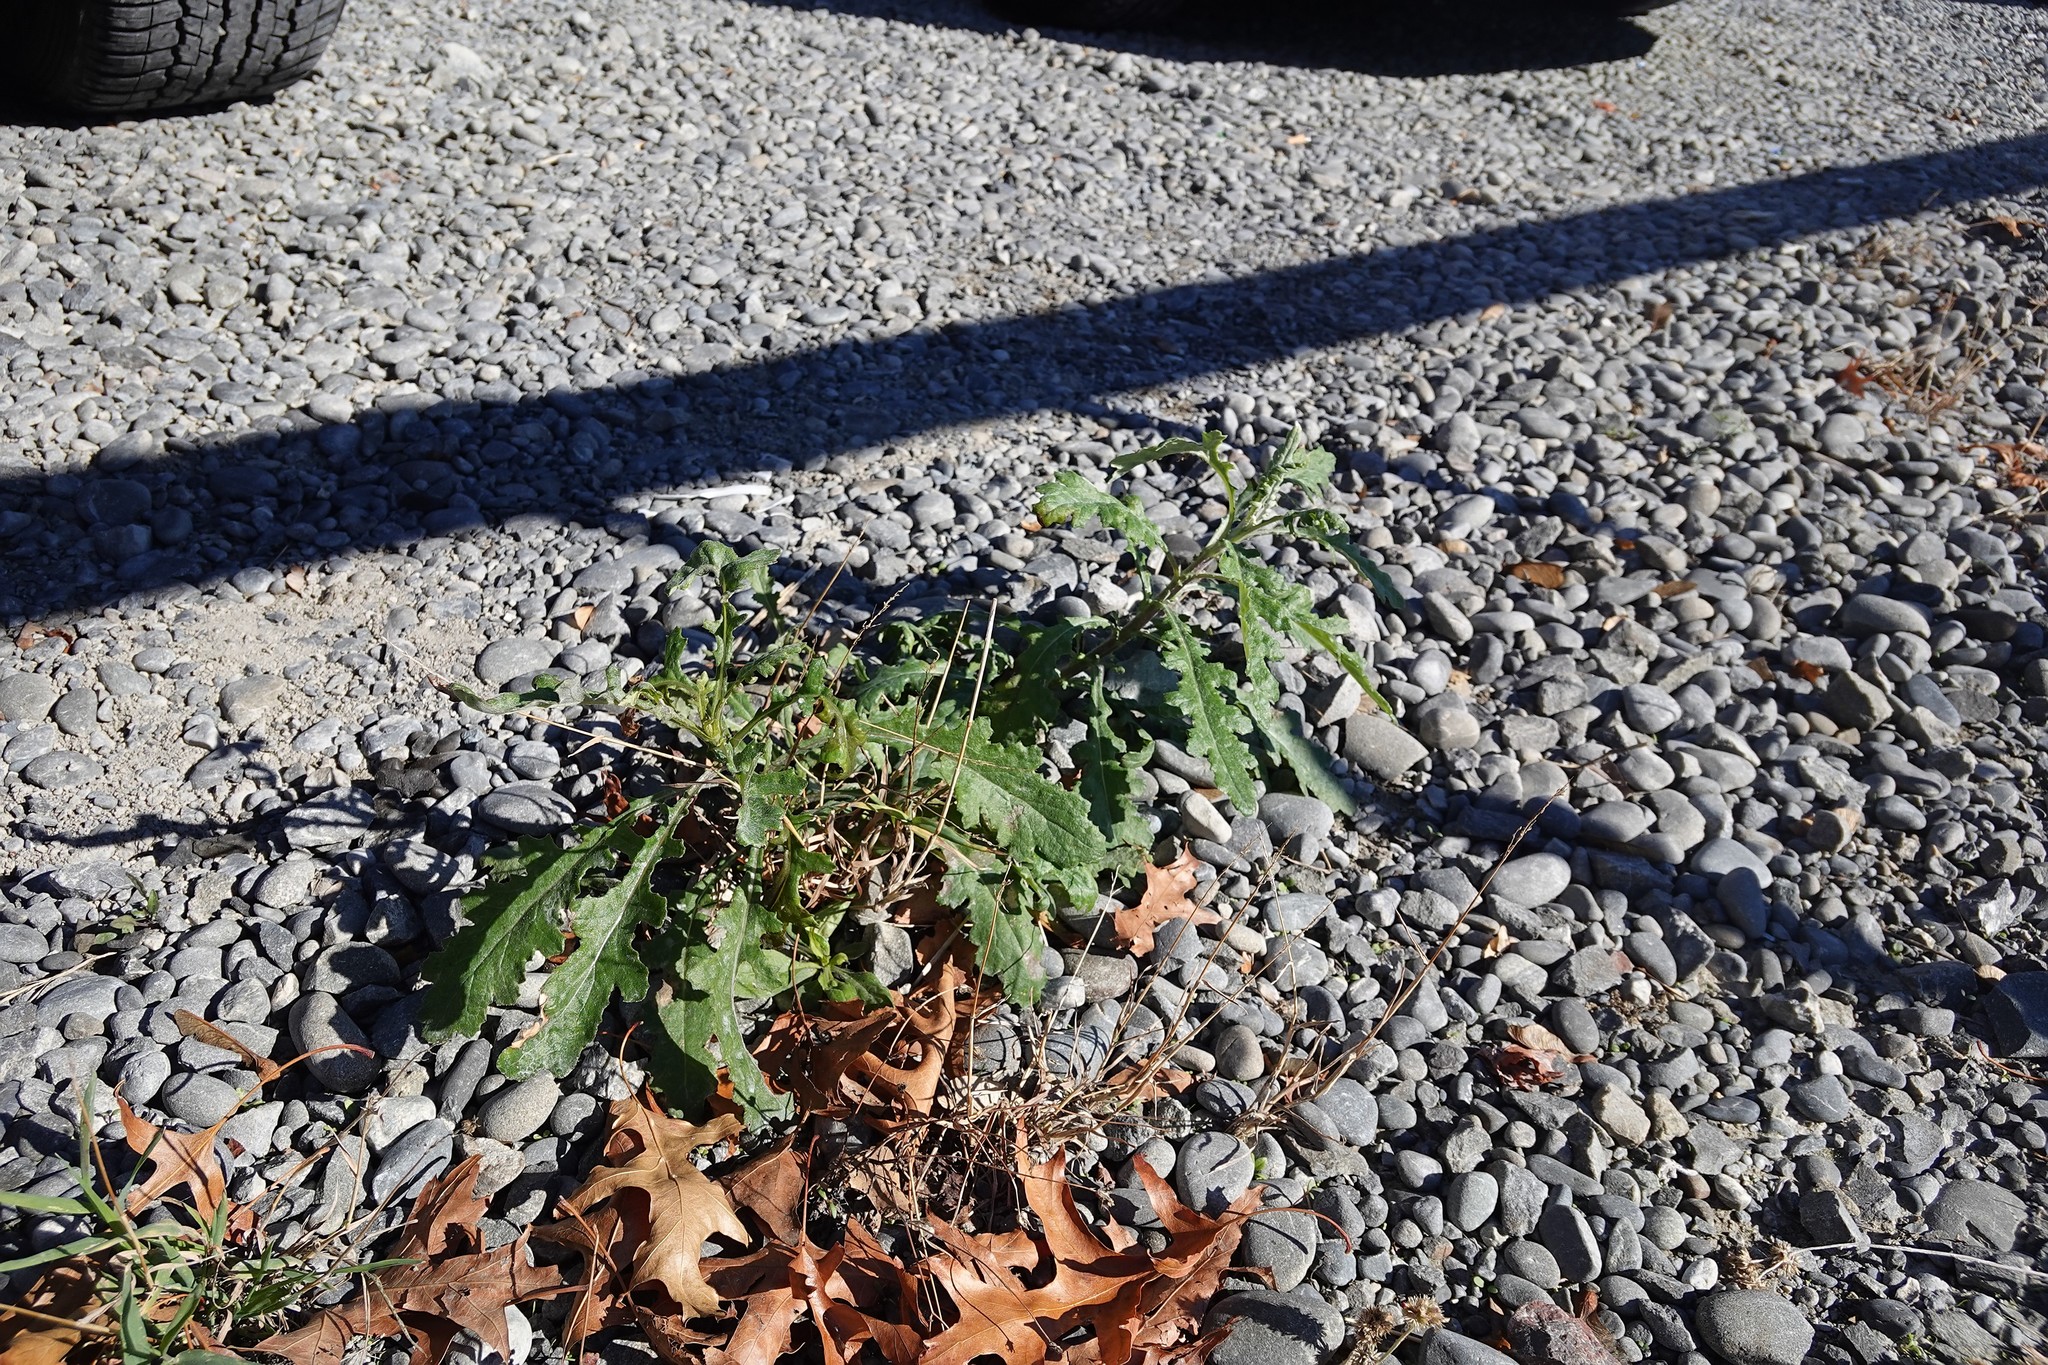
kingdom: Plantae
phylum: Tracheophyta
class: Magnoliopsida
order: Asterales
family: Asteraceae
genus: Senecio
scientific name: Senecio glomeratus
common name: Cutleaf burnweed
